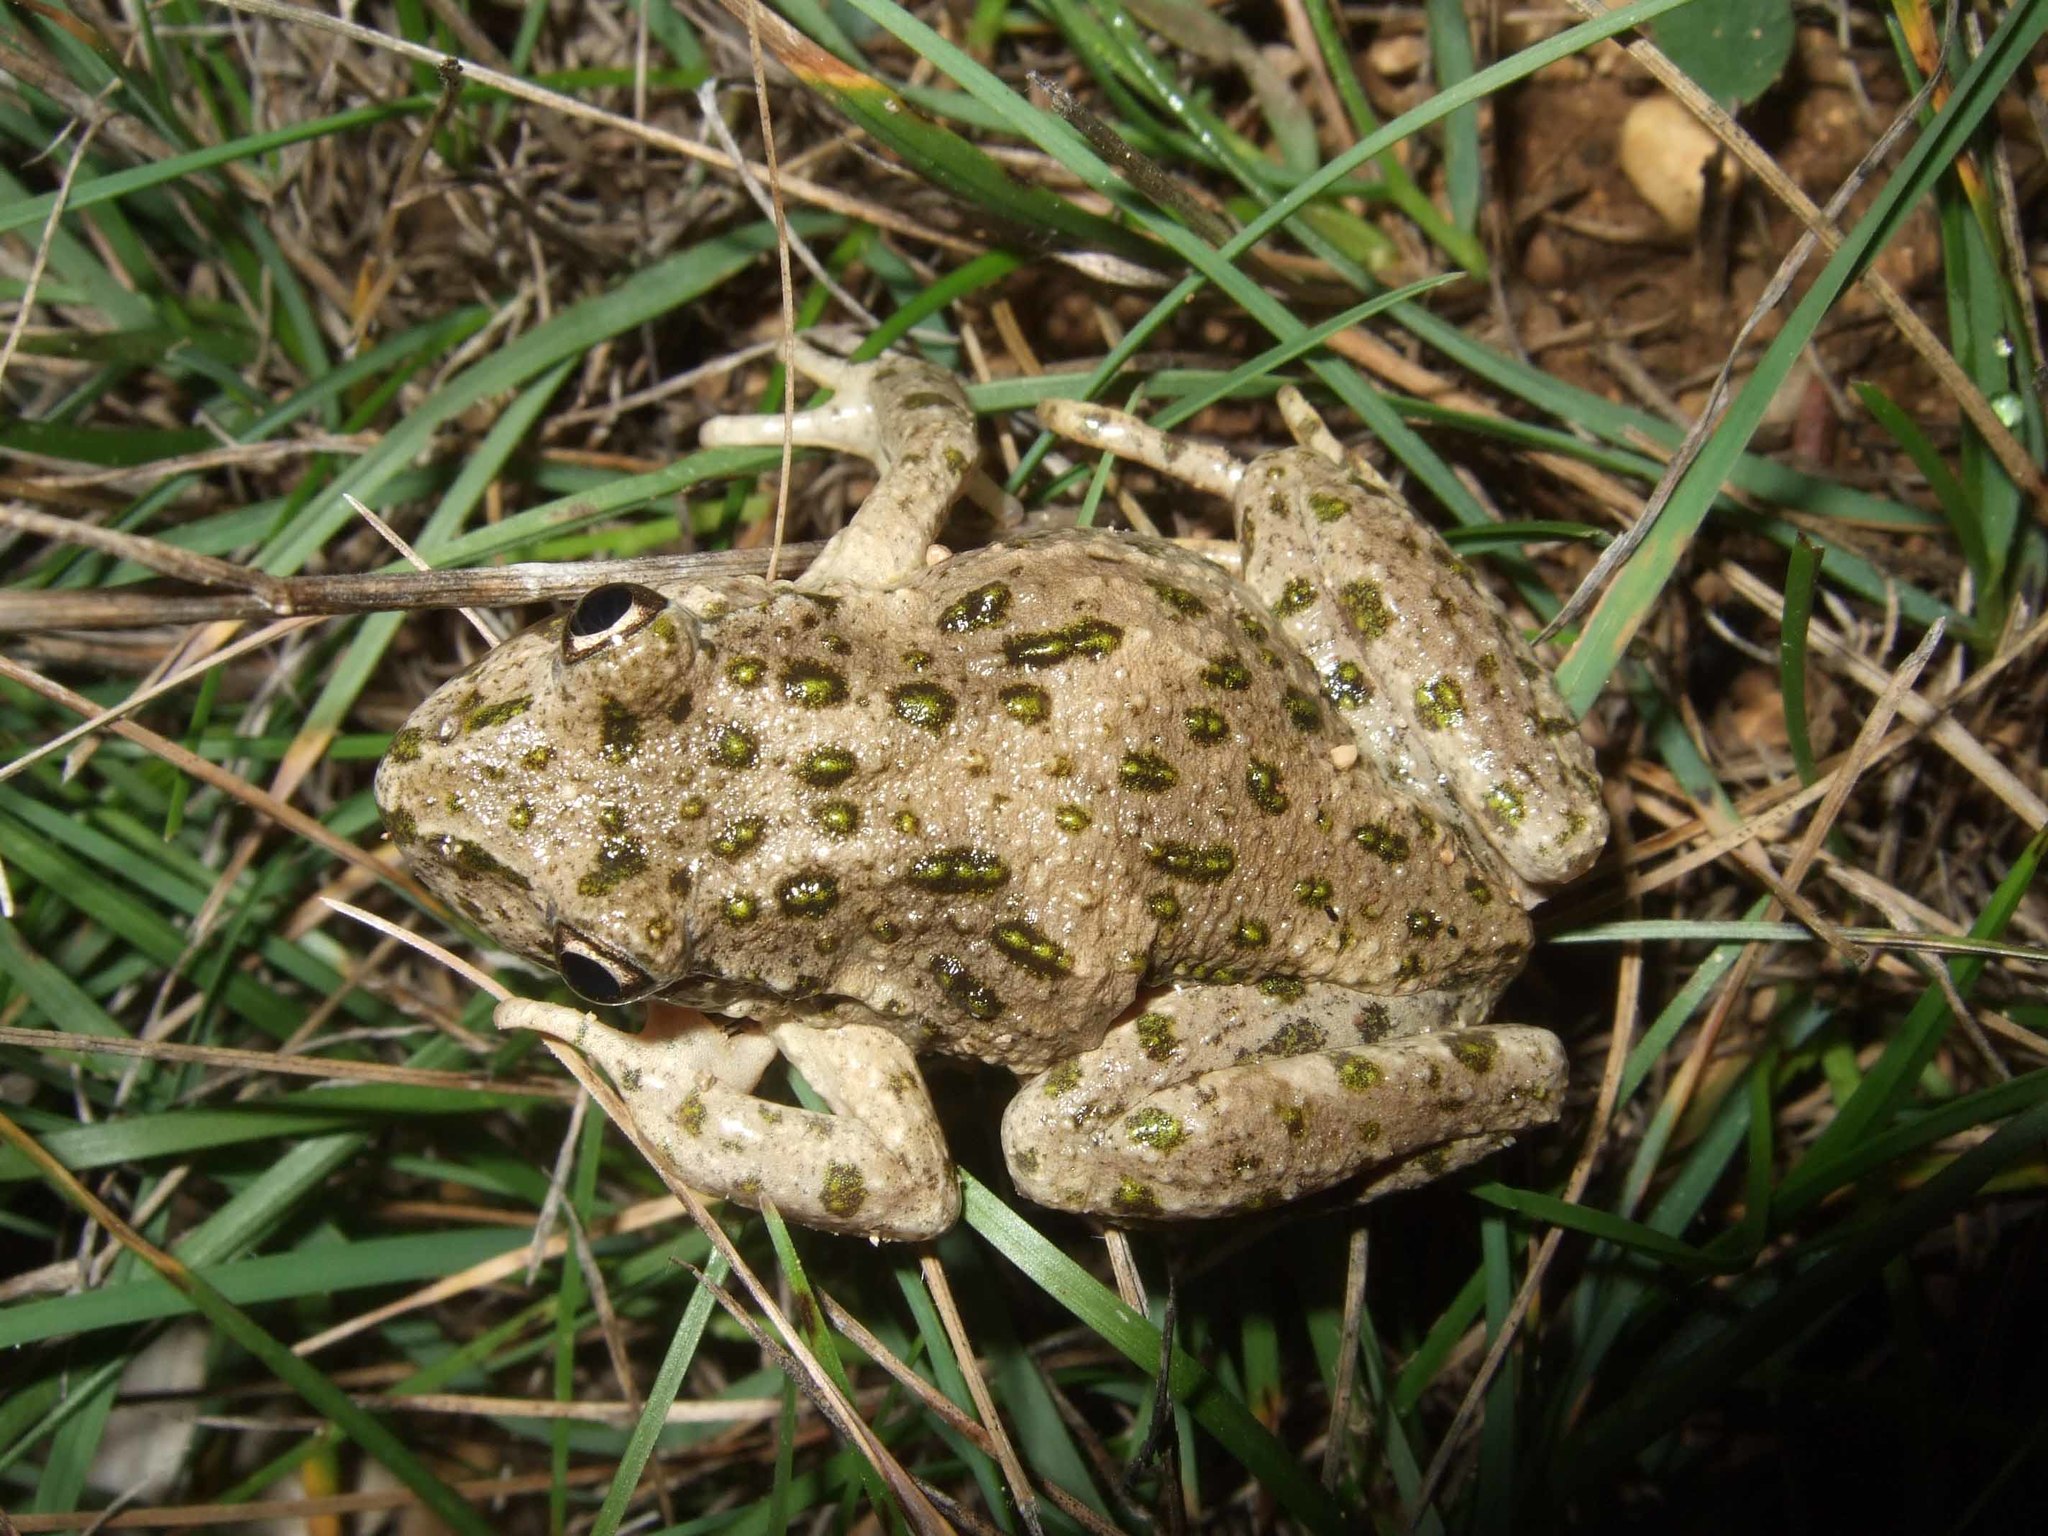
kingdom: Animalia
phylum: Chordata
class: Amphibia
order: Anura
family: Pelodytidae
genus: Pelodytes
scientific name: Pelodytes punctatus
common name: Parsley frog
